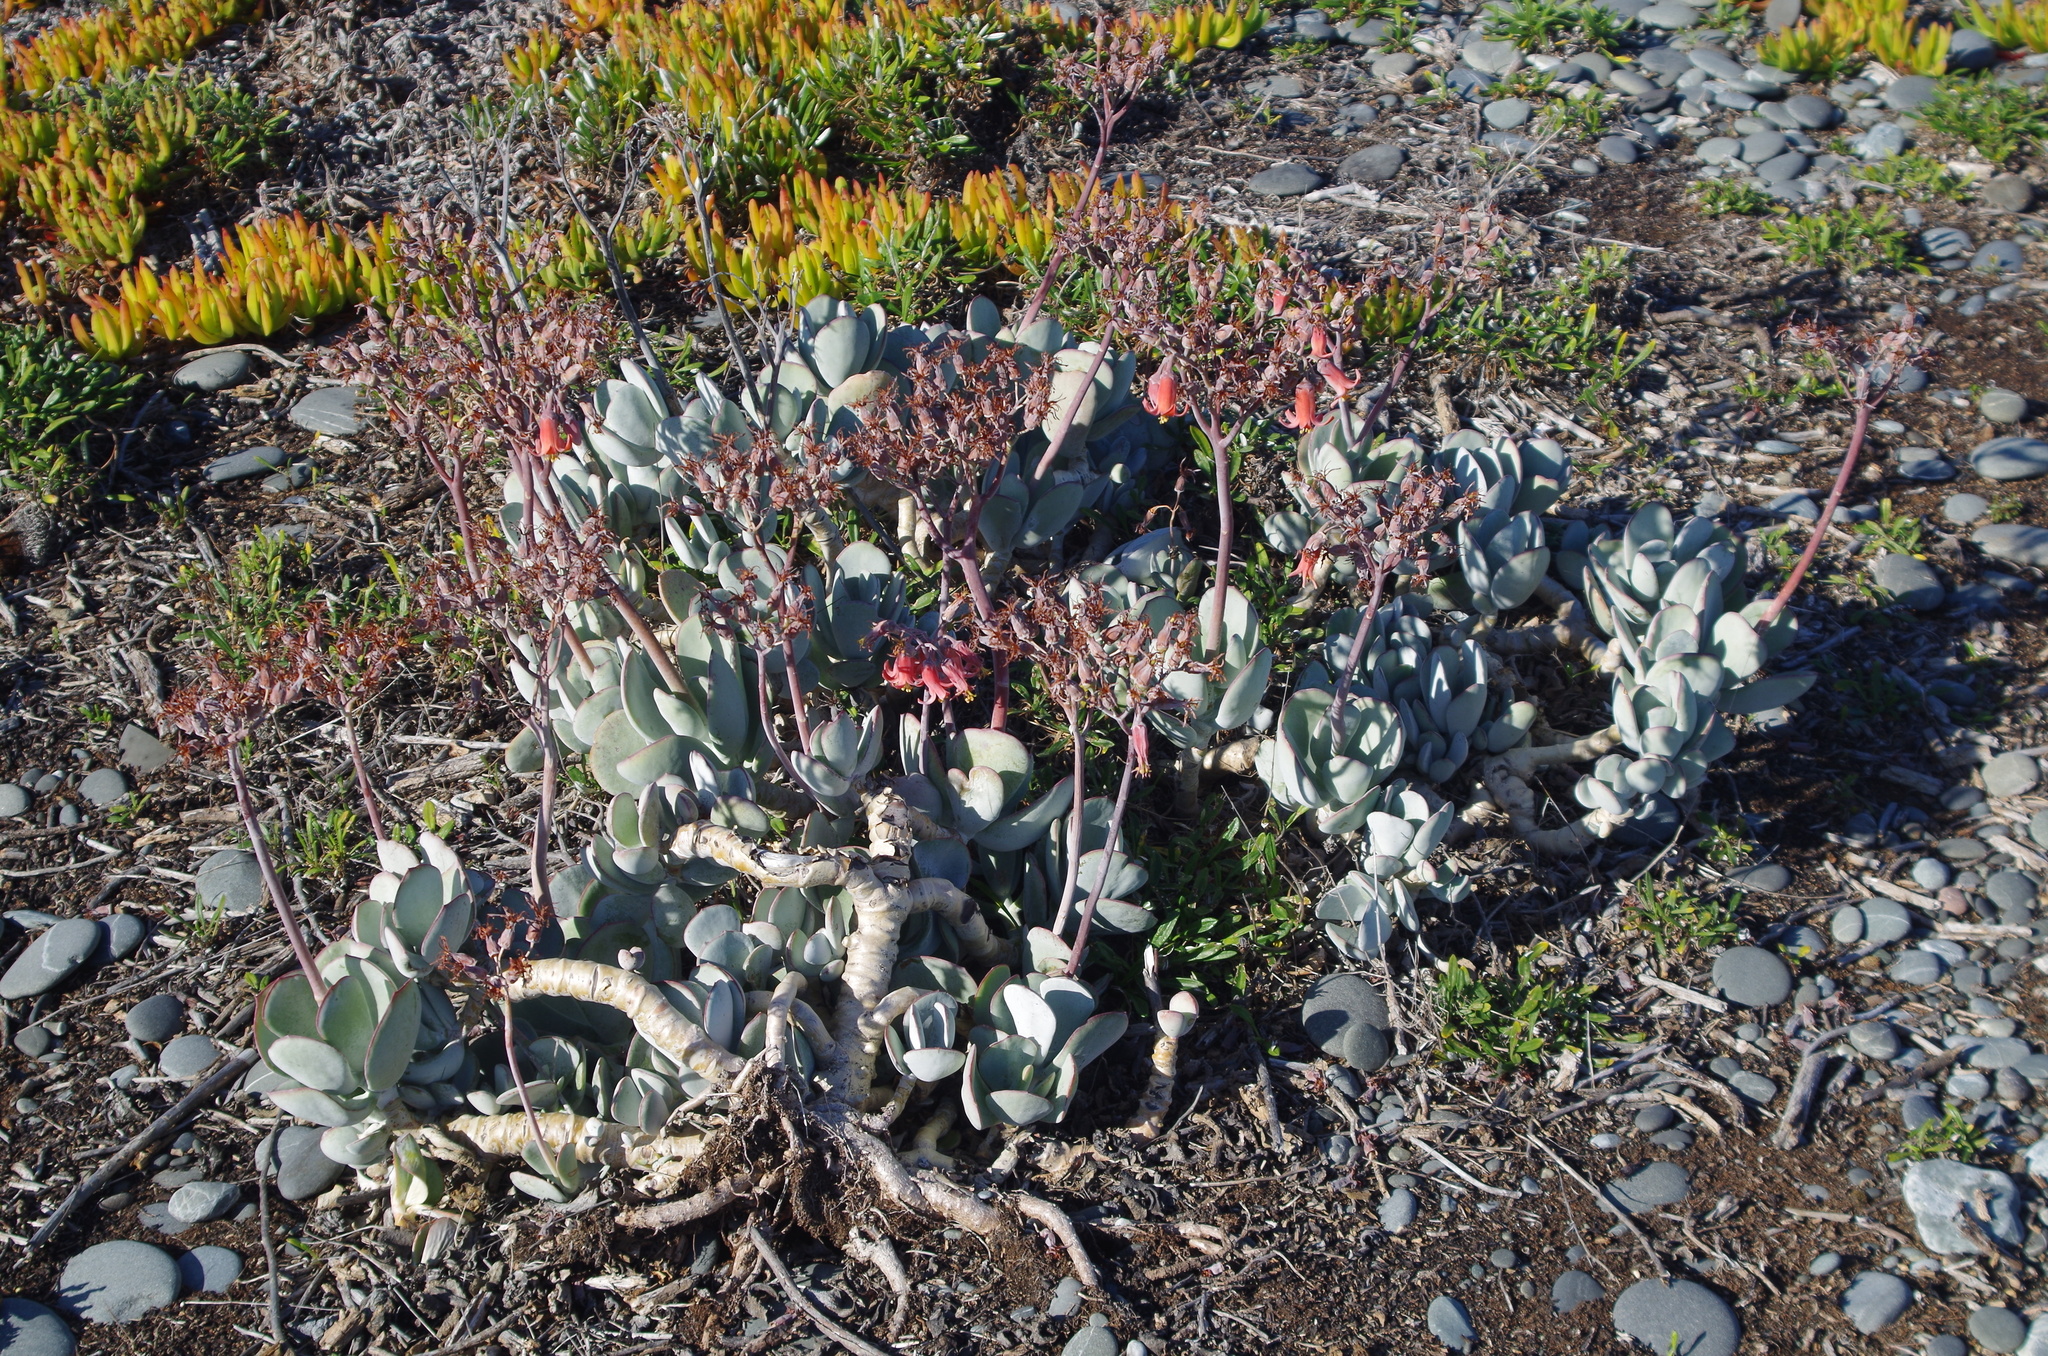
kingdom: Plantae
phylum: Tracheophyta
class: Magnoliopsida
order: Saxifragales
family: Crassulaceae
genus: Cotyledon
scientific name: Cotyledon orbiculata
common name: Pig's ear
